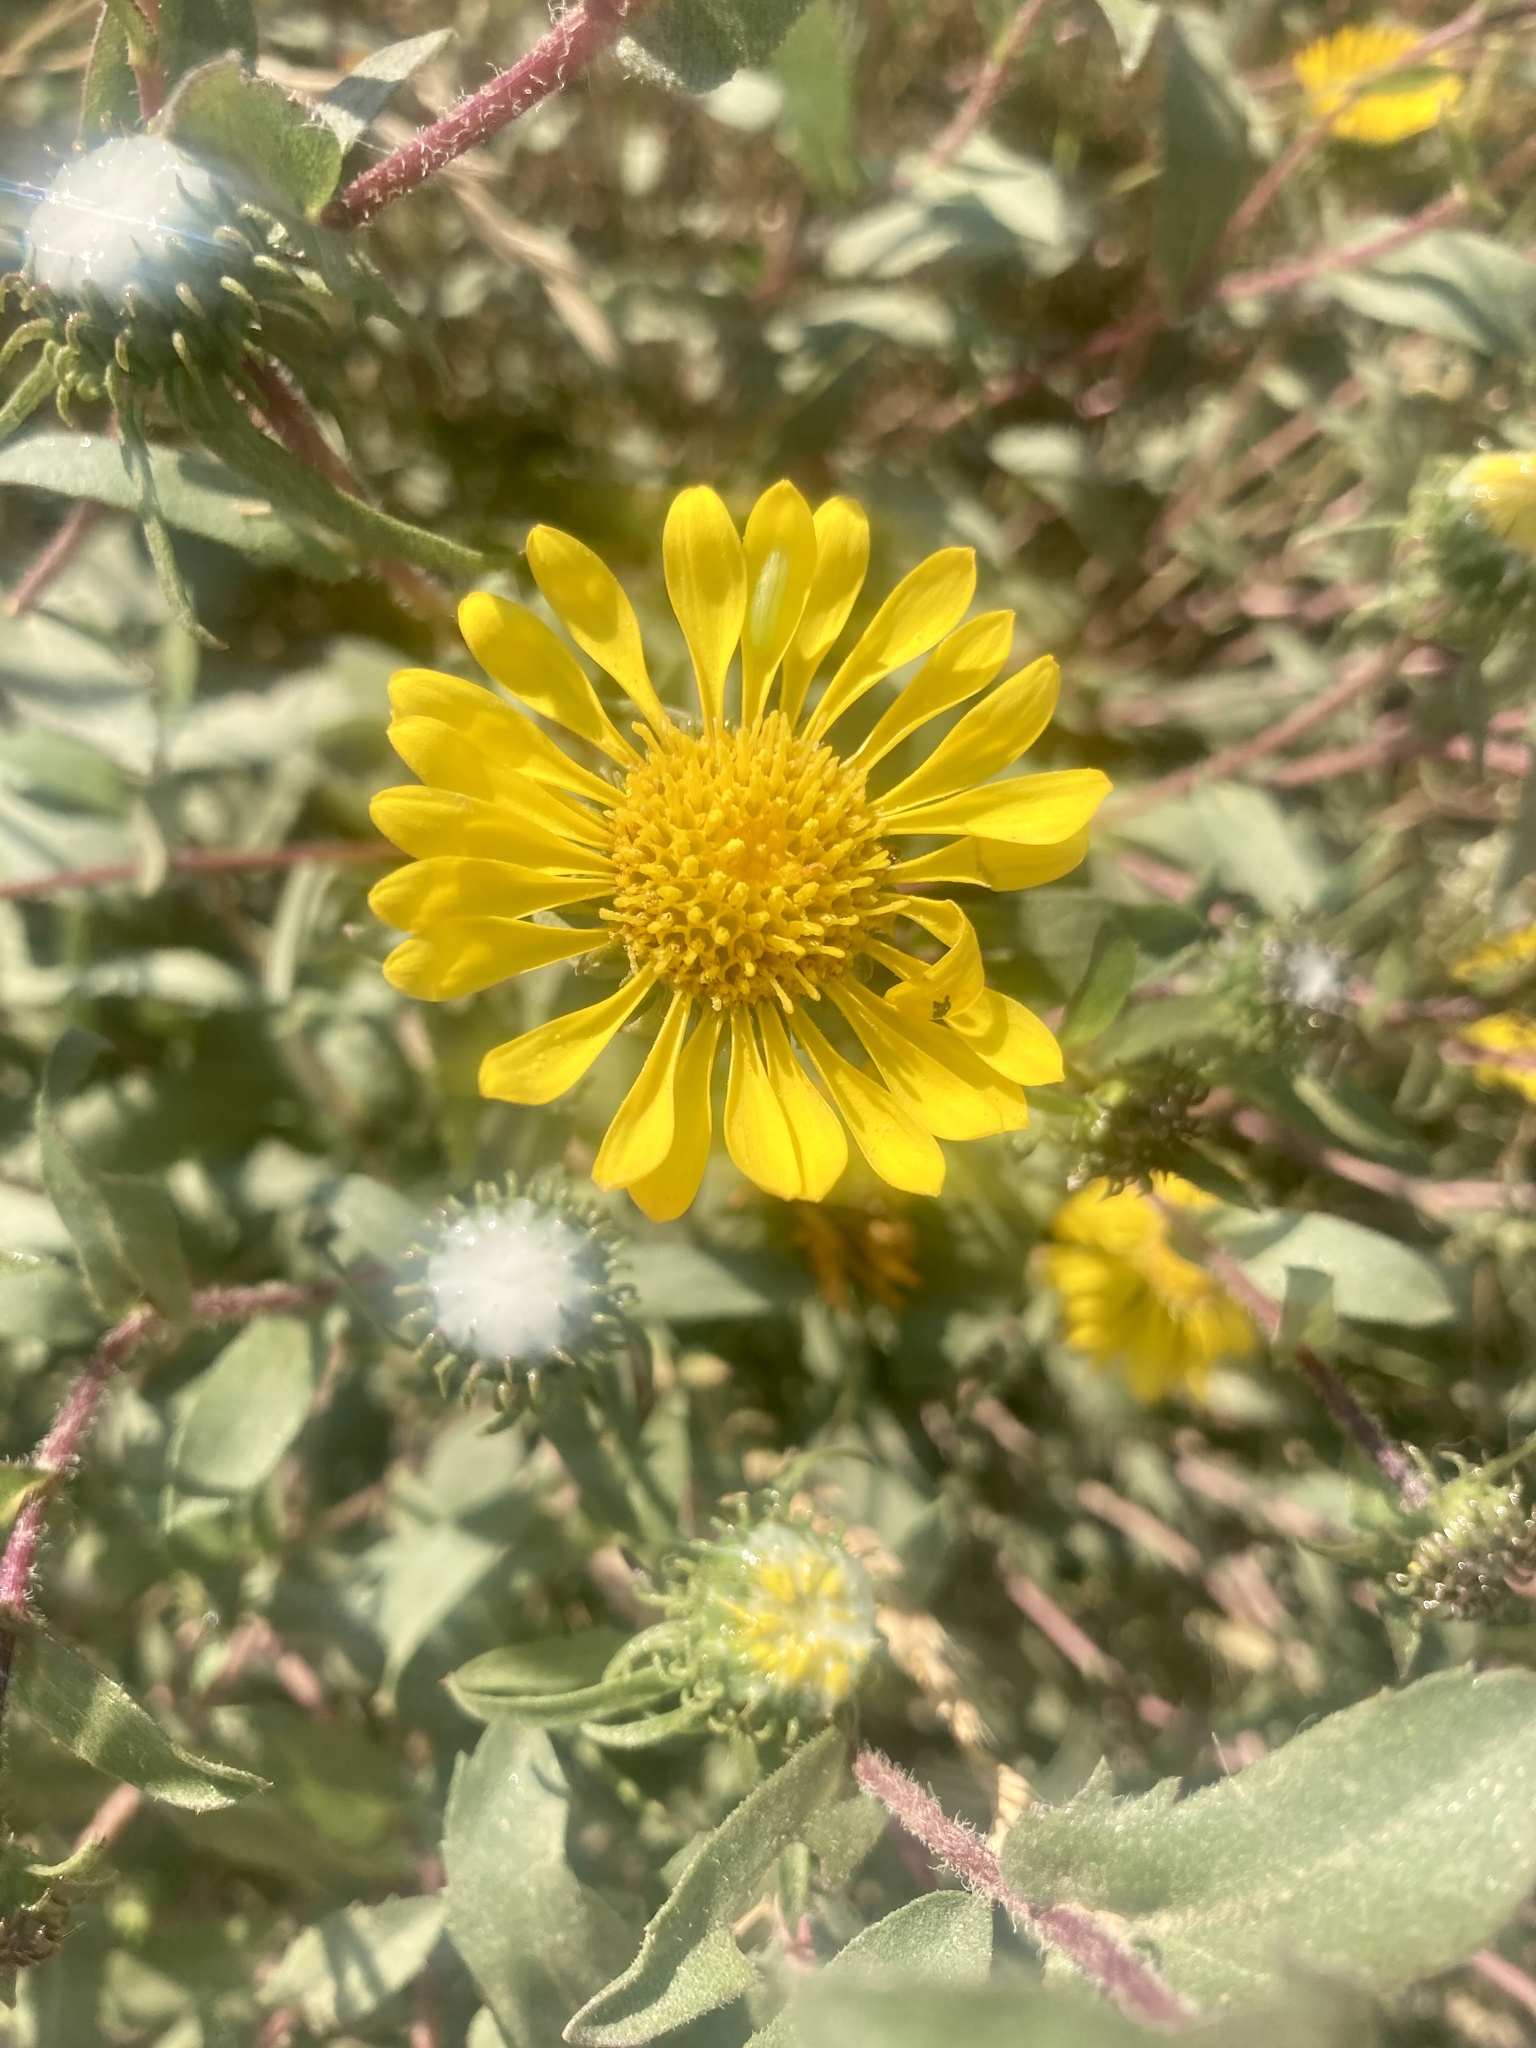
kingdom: Plantae
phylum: Tracheophyta
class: Magnoliopsida
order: Asterales
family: Asteraceae
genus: Grindelia
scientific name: Grindelia hirsutula
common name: Hairy gumweed
